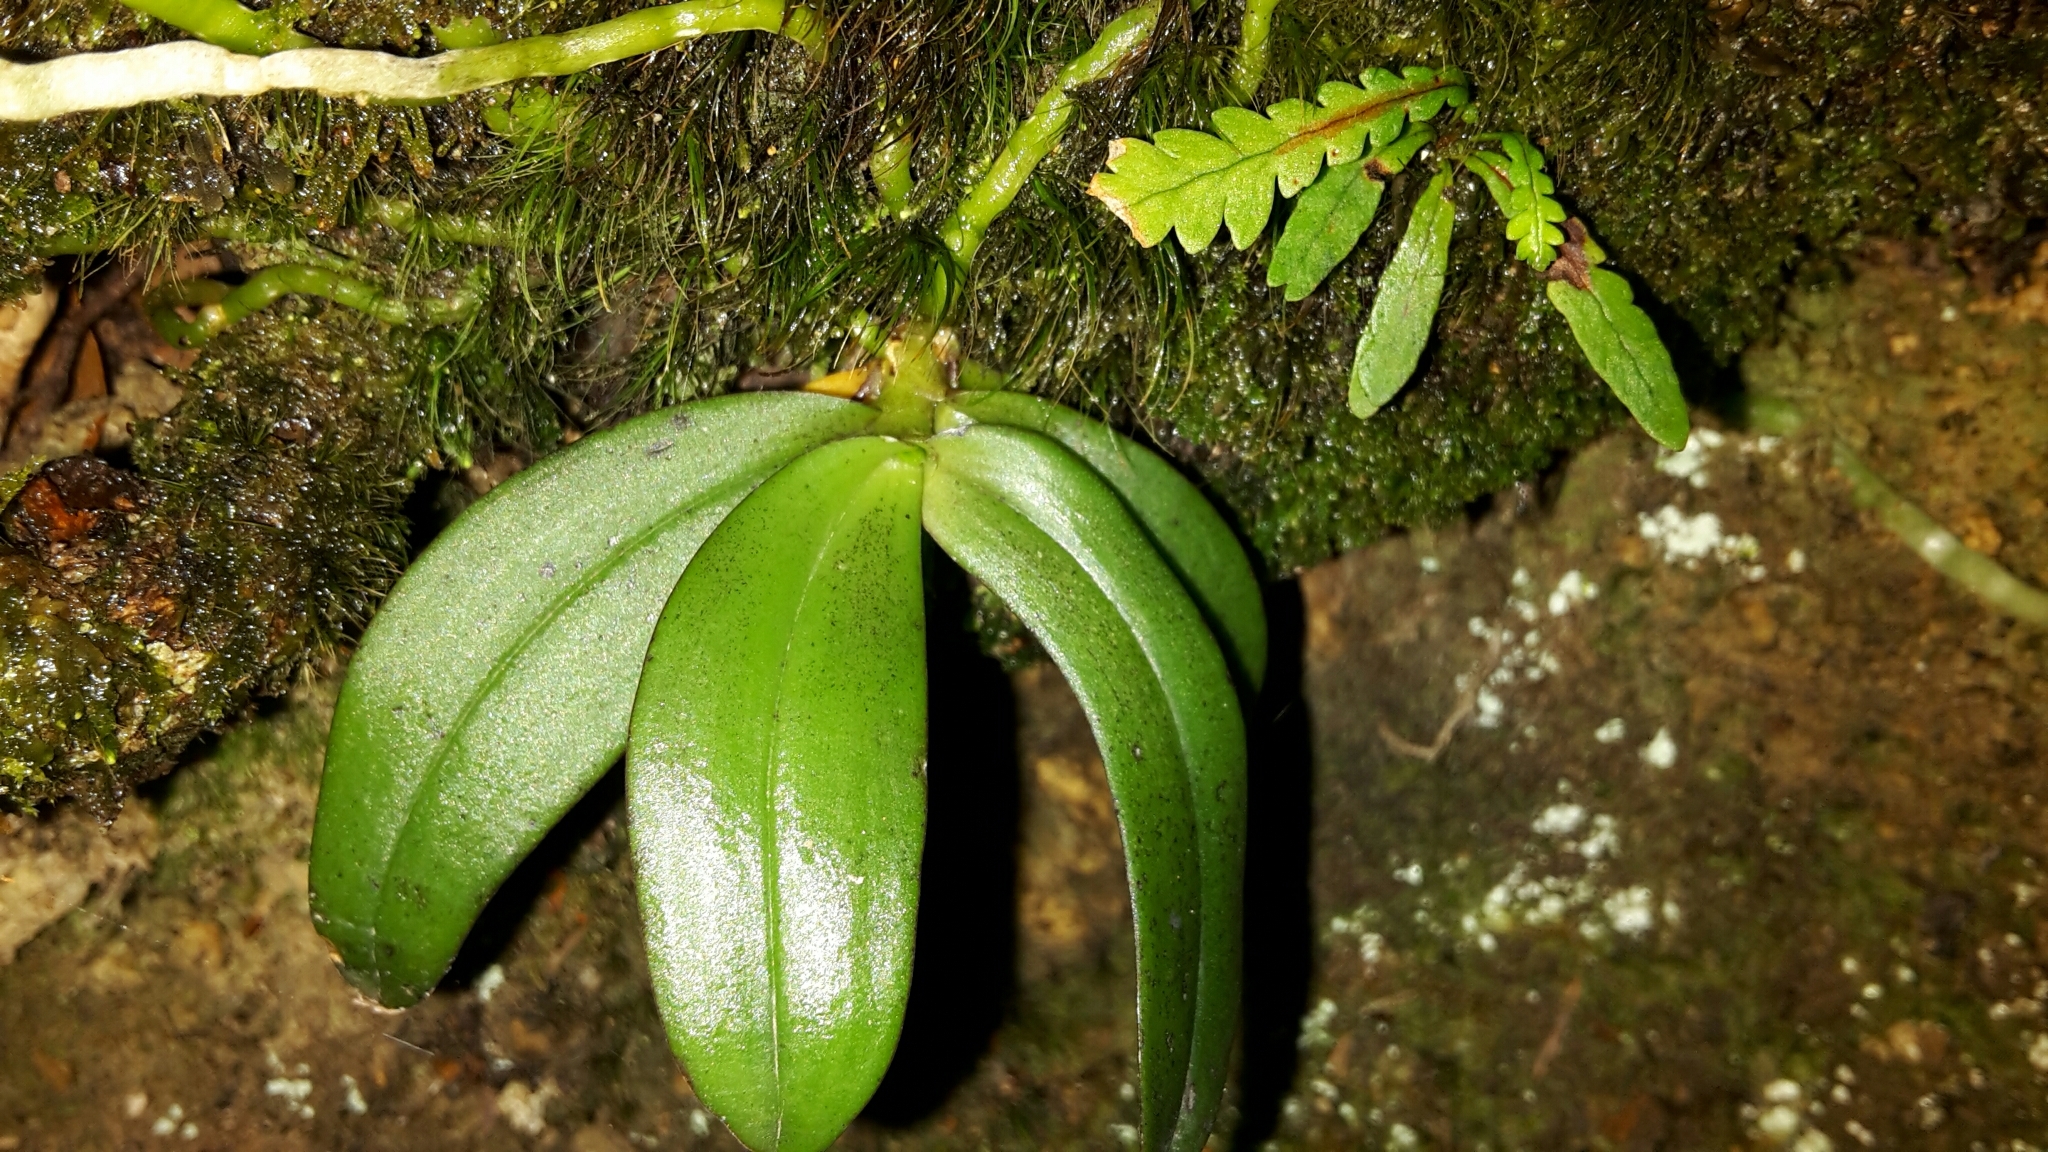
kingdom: Plantae
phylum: Tracheophyta
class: Liliopsida
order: Asparagales
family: Orchidaceae
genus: Drymoanthus
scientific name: Drymoanthus adversus
